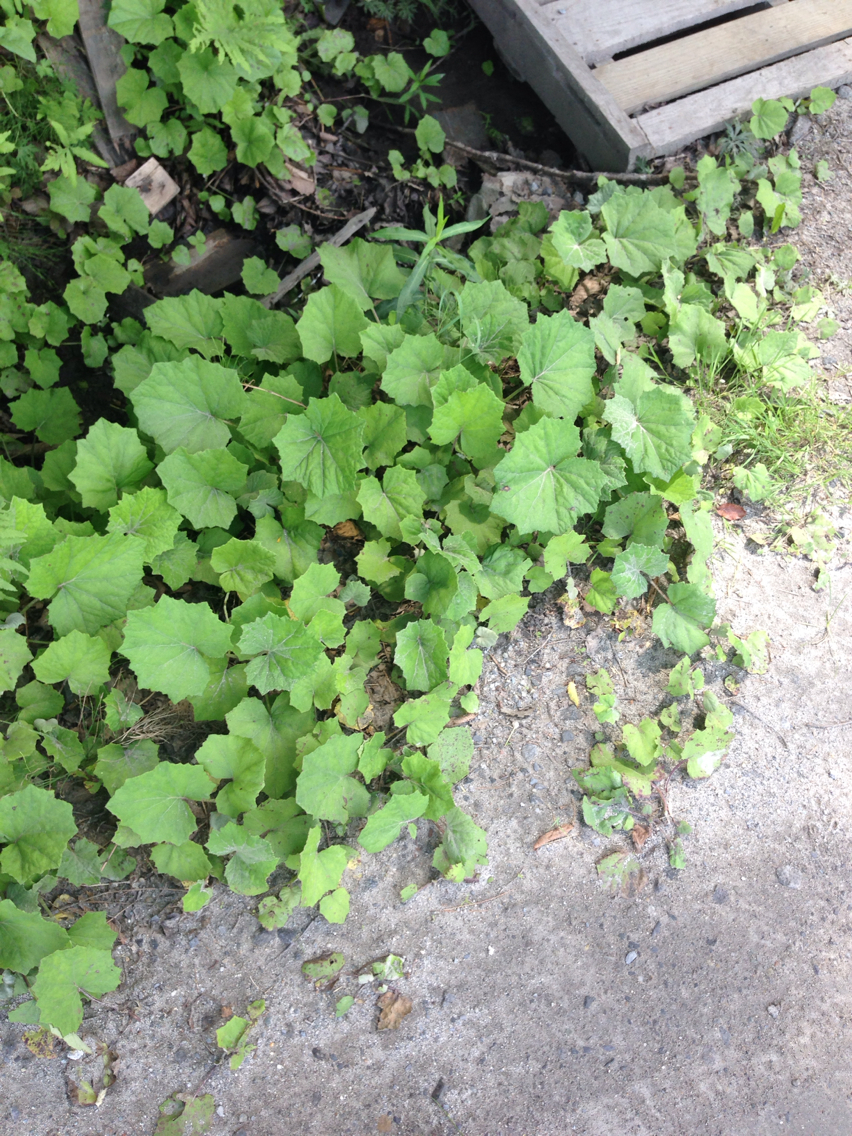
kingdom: Plantae
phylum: Tracheophyta
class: Magnoliopsida
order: Asterales
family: Asteraceae
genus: Tussilago
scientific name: Tussilago farfara
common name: Coltsfoot
